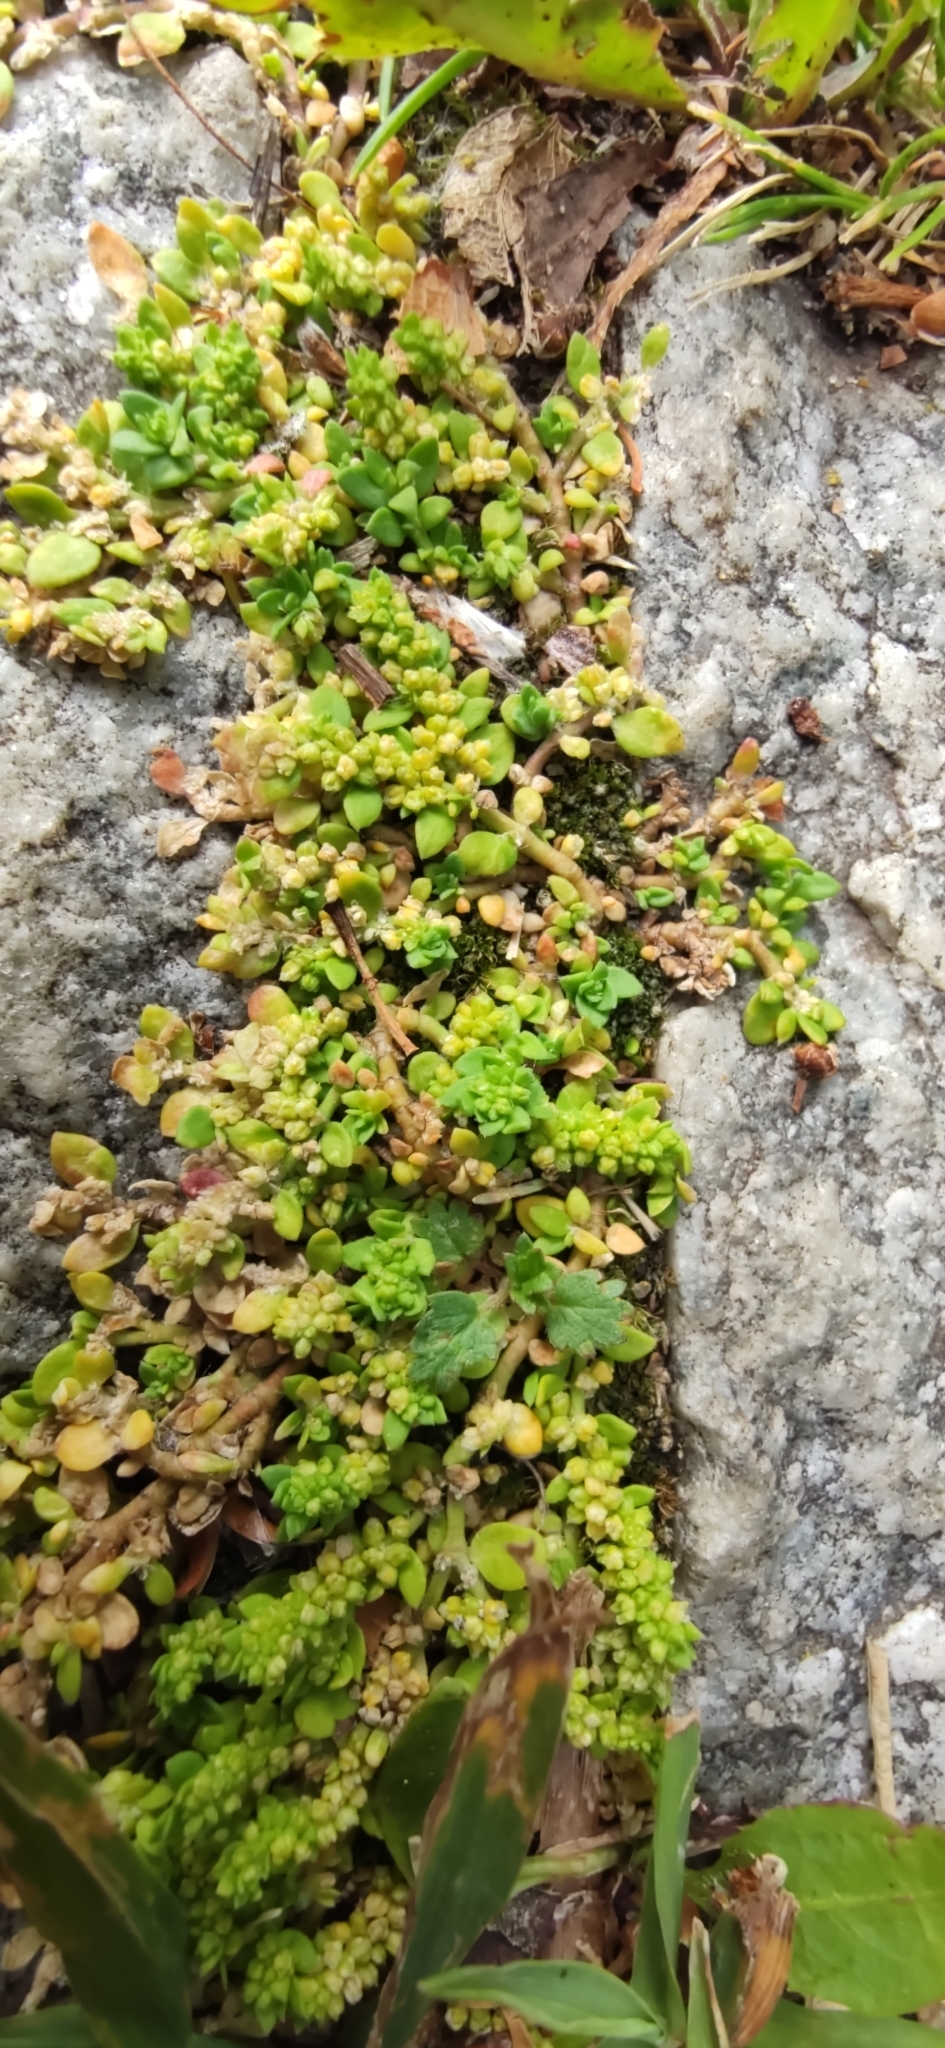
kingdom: Plantae
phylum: Tracheophyta
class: Magnoliopsida
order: Caryophyllales
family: Caryophyllaceae
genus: Herniaria
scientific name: Herniaria glabra
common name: Smooth rupturewort
